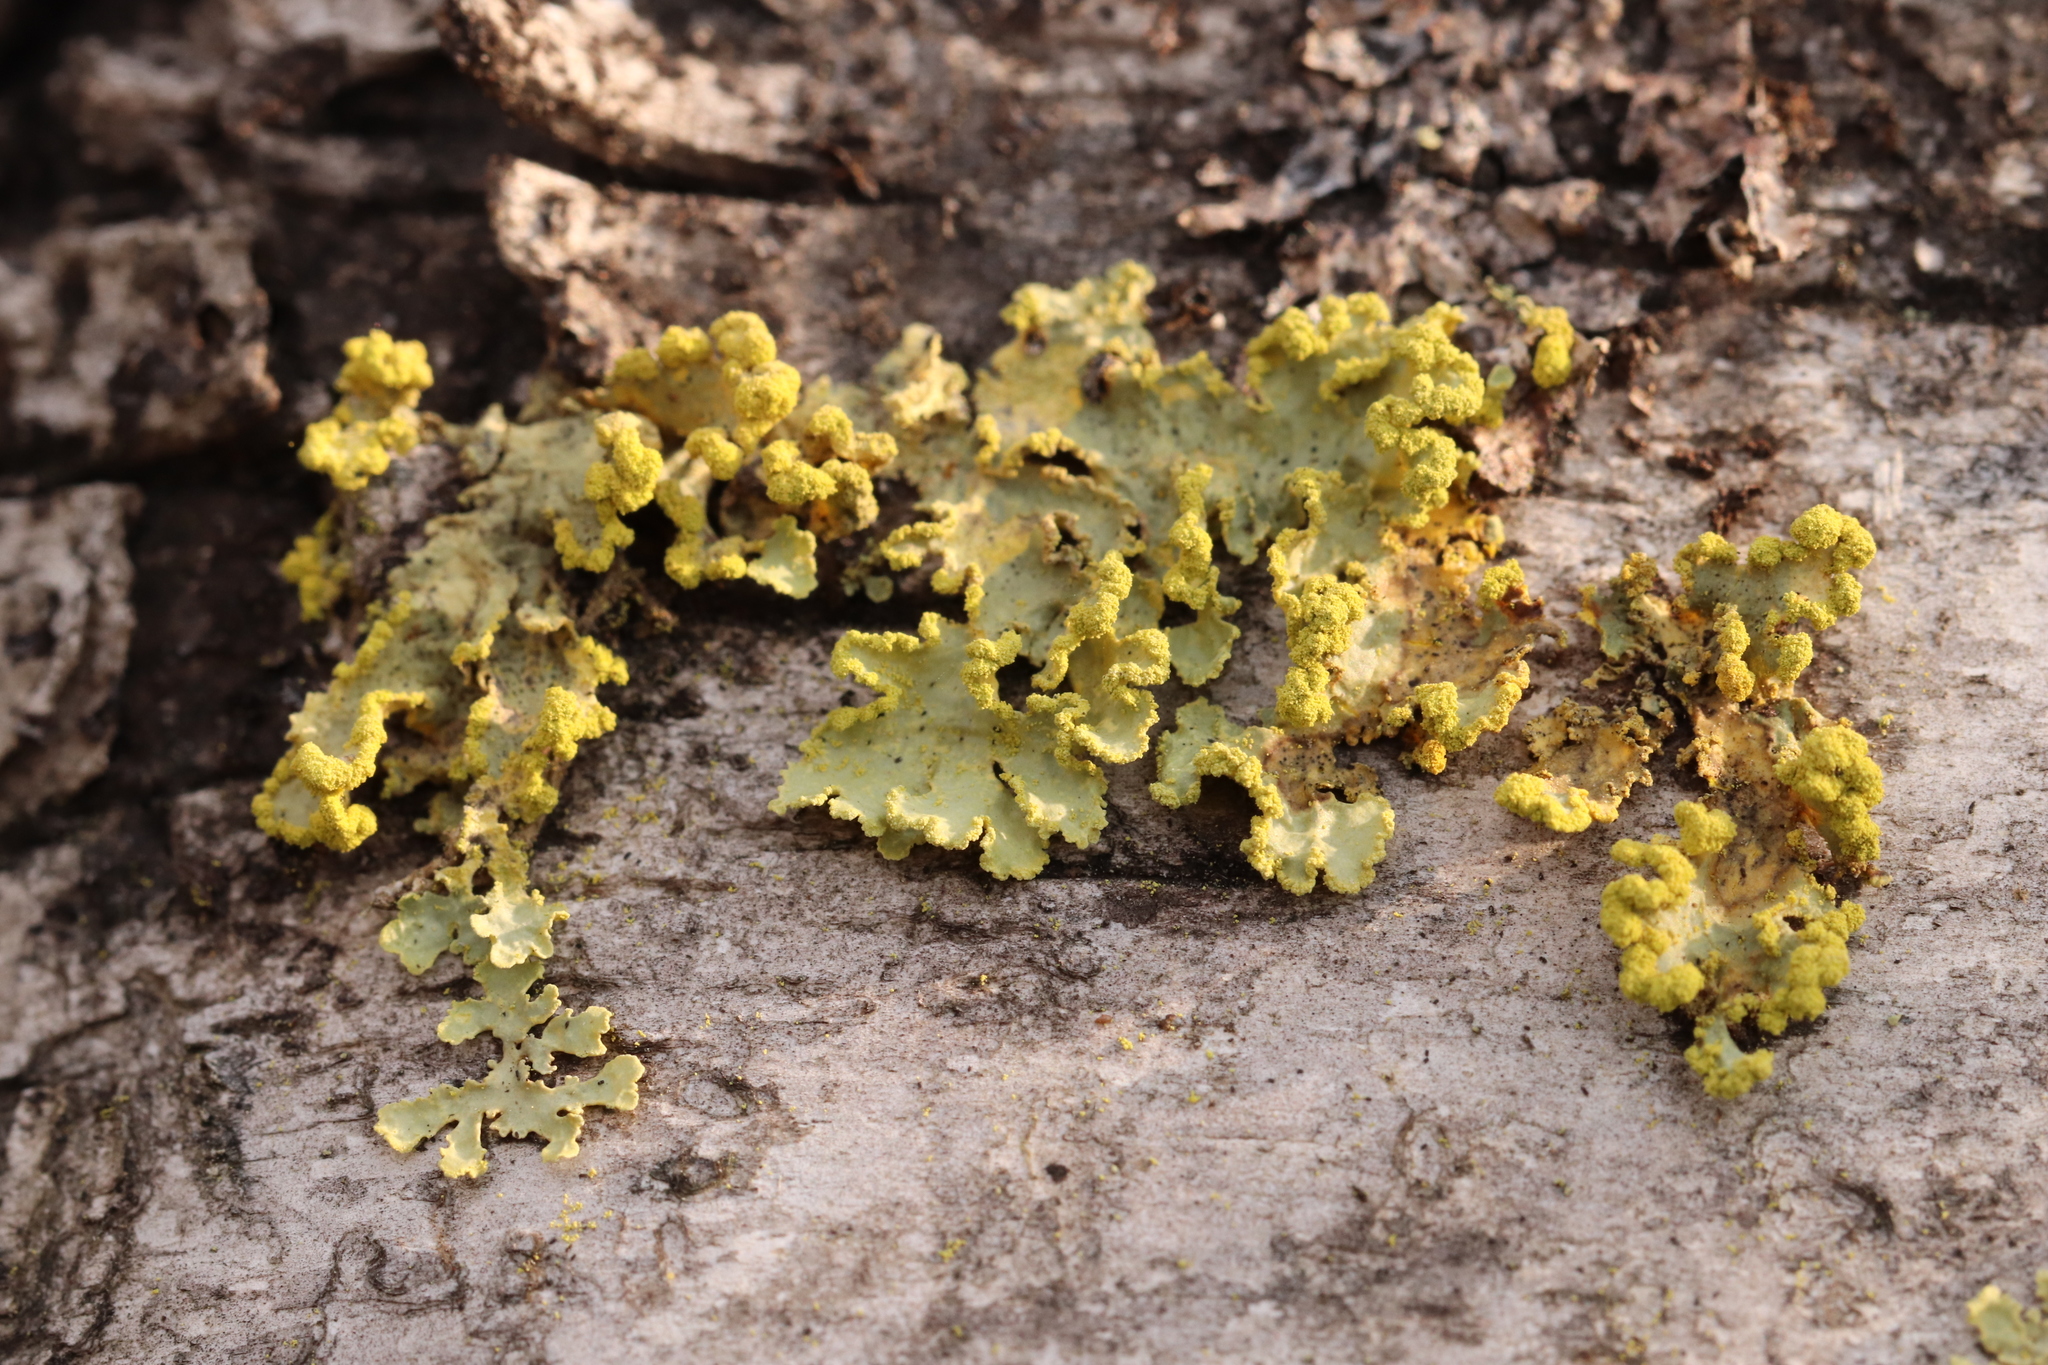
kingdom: Fungi
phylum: Ascomycota
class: Lecanoromycetes
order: Lecanorales
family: Parmeliaceae
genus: Vulpicida
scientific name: Vulpicida pinastri
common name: Powdered sunshine lichen
